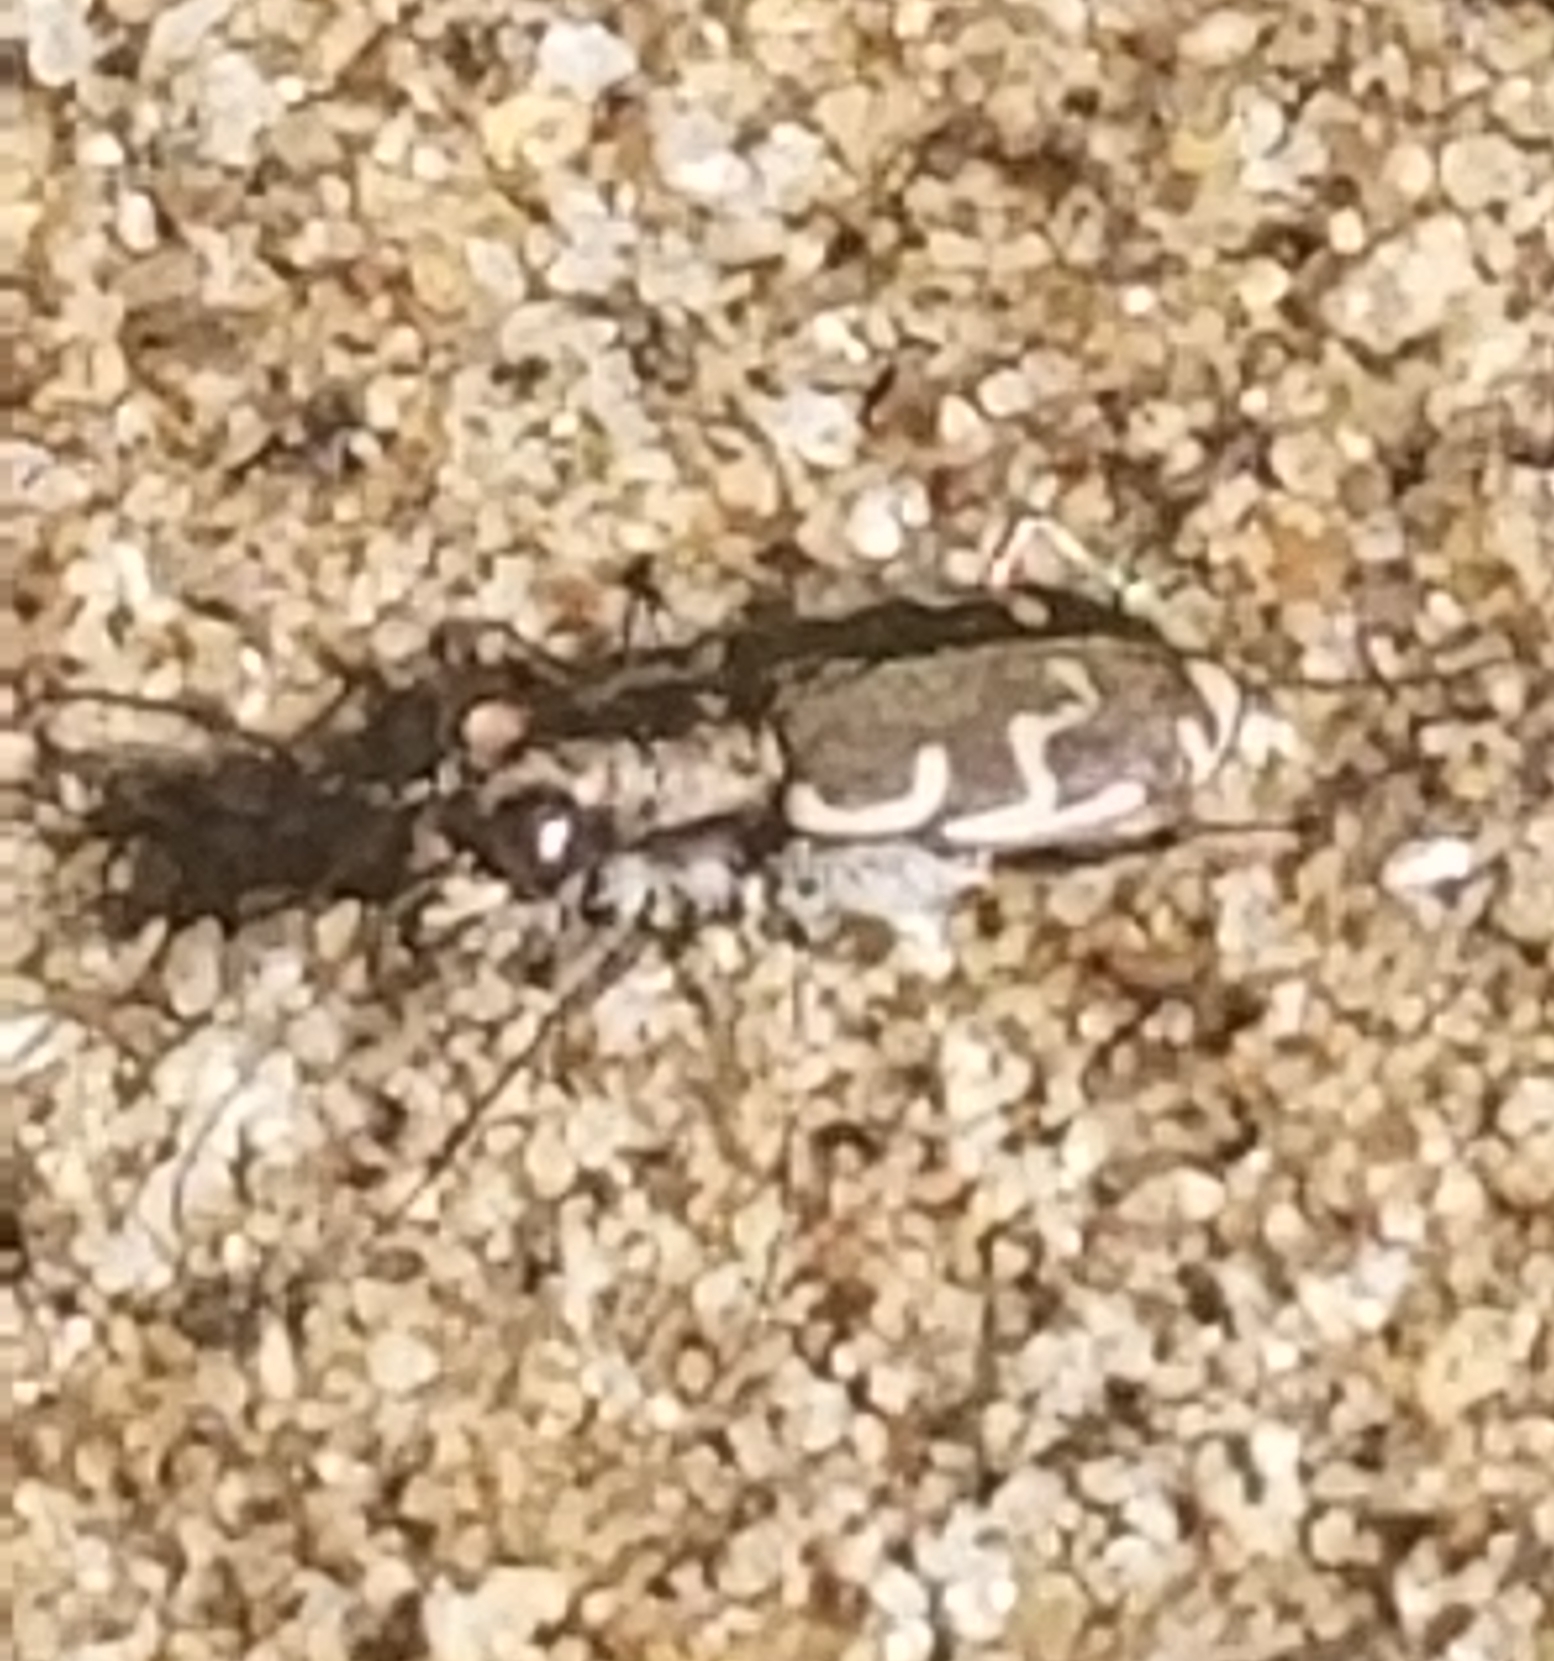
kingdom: Animalia
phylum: Arthropoda
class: Insecta
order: Coleoptera
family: Carabidae
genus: Cicindela
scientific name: Cicindela repanda
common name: Bronzed tiger beetle
